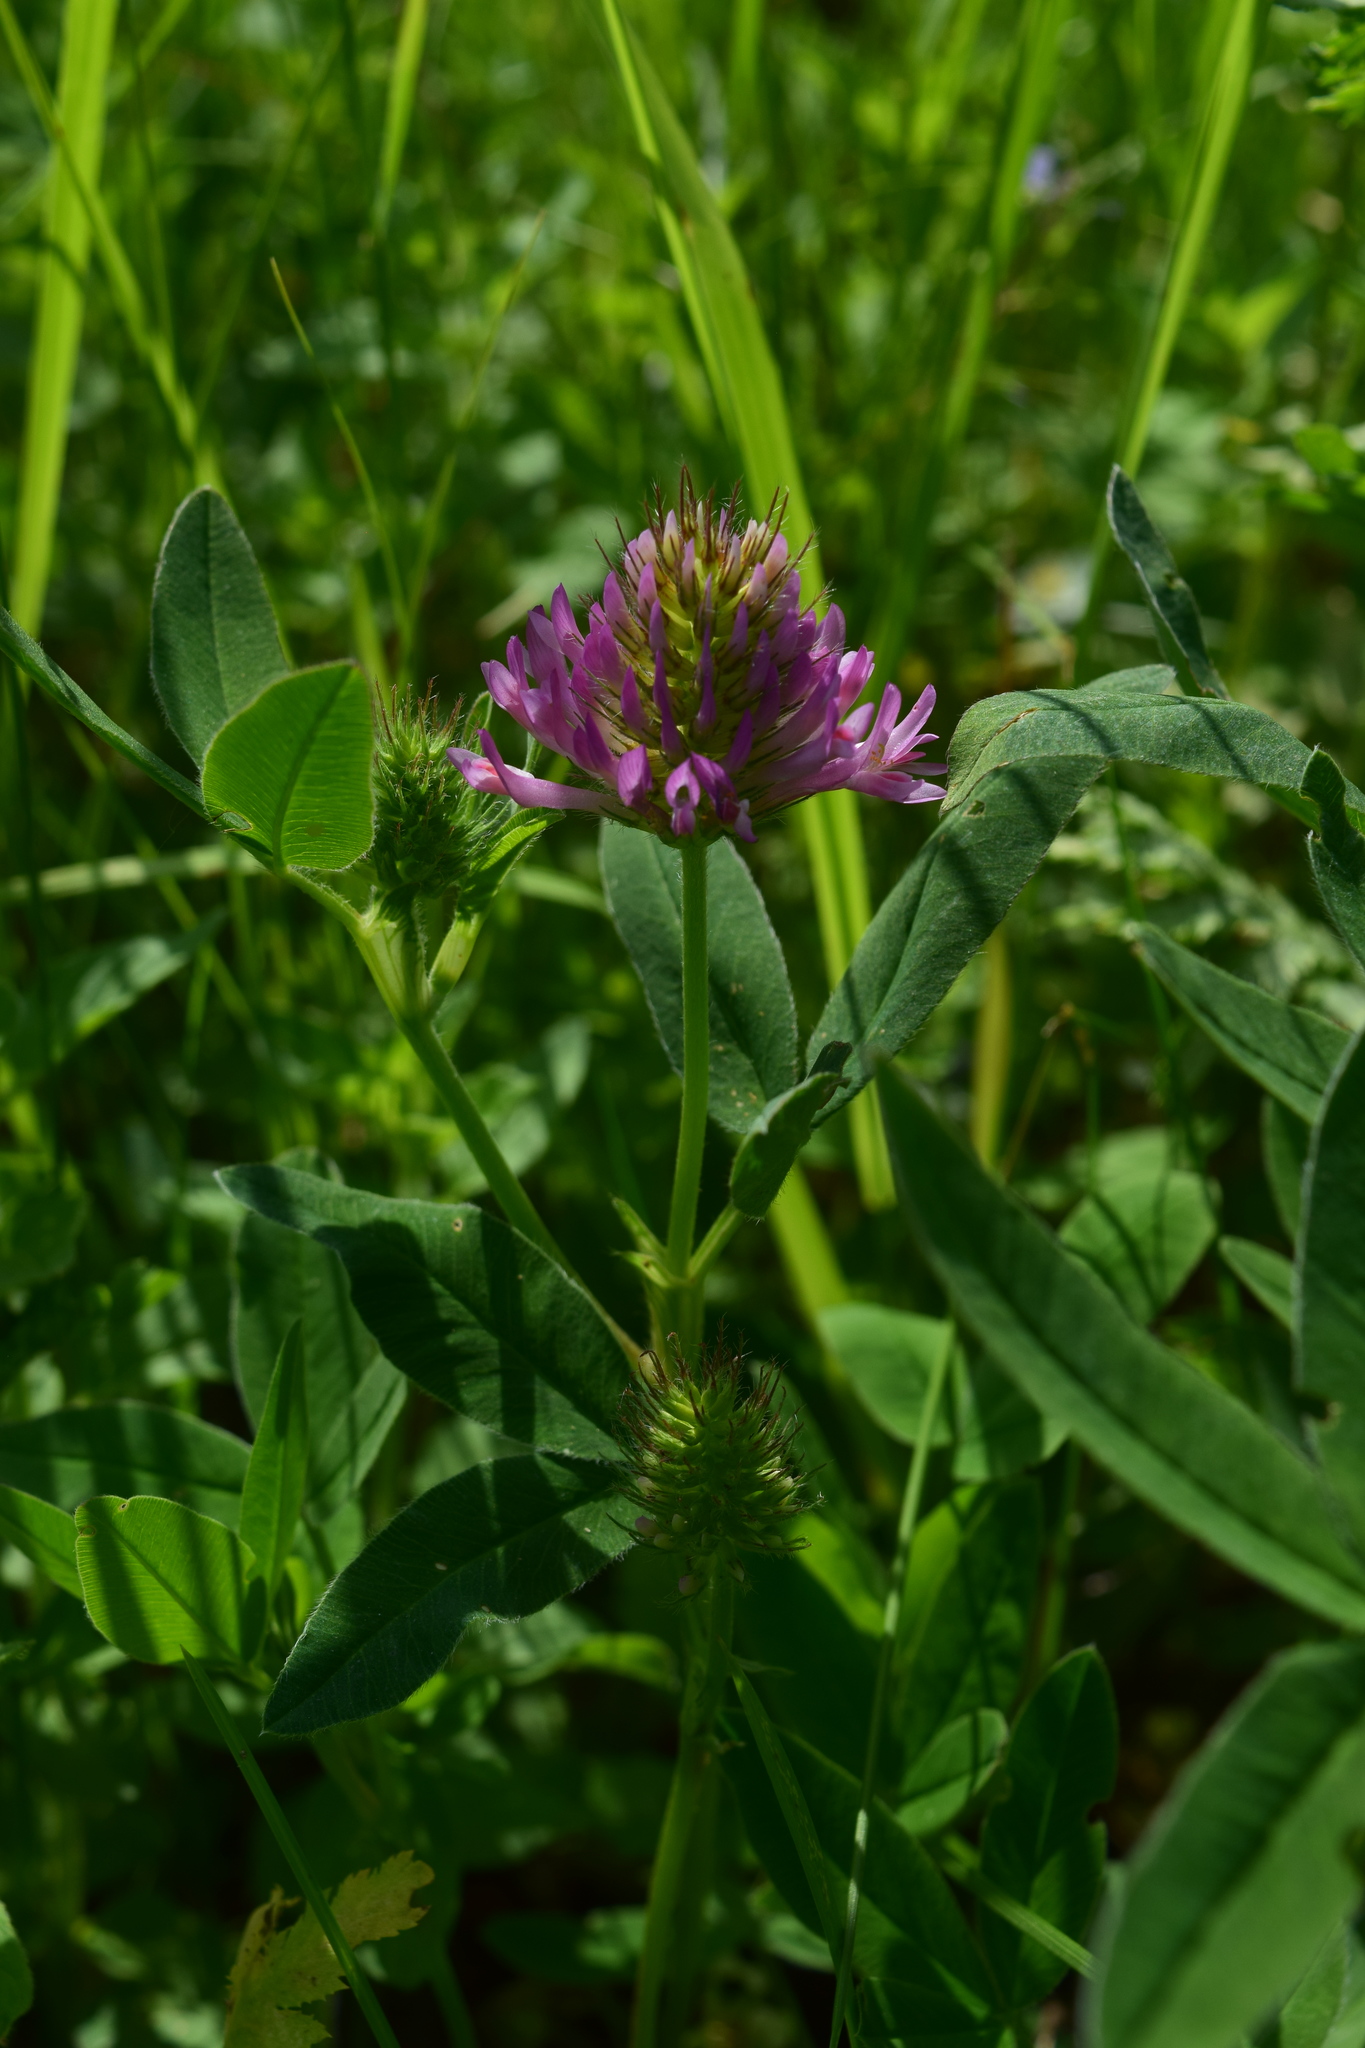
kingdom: Plantae
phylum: Tracheophyta
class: Magnoliopsida
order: Fabales
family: Fabaceae
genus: Trifolium
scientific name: Trifolium medium
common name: Zigzag clover
